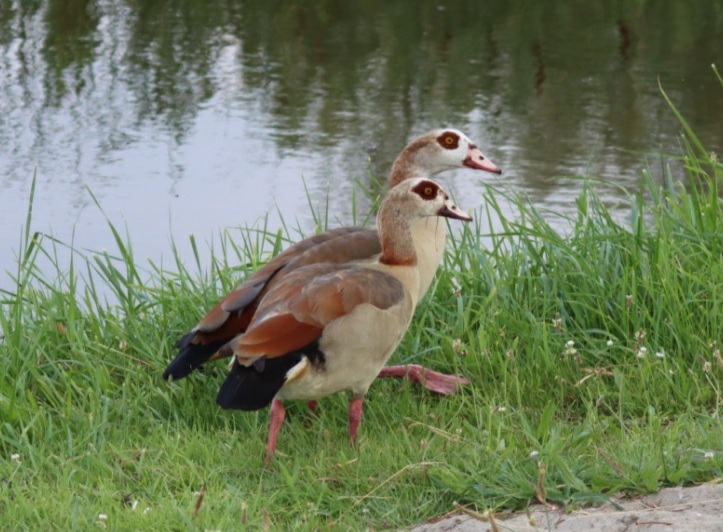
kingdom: Animalia
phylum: Chordata
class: Aves
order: Anseriformes
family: Anatidae
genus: Alopochen
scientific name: Alopochen aegyptiaca
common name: Egyptian goose
